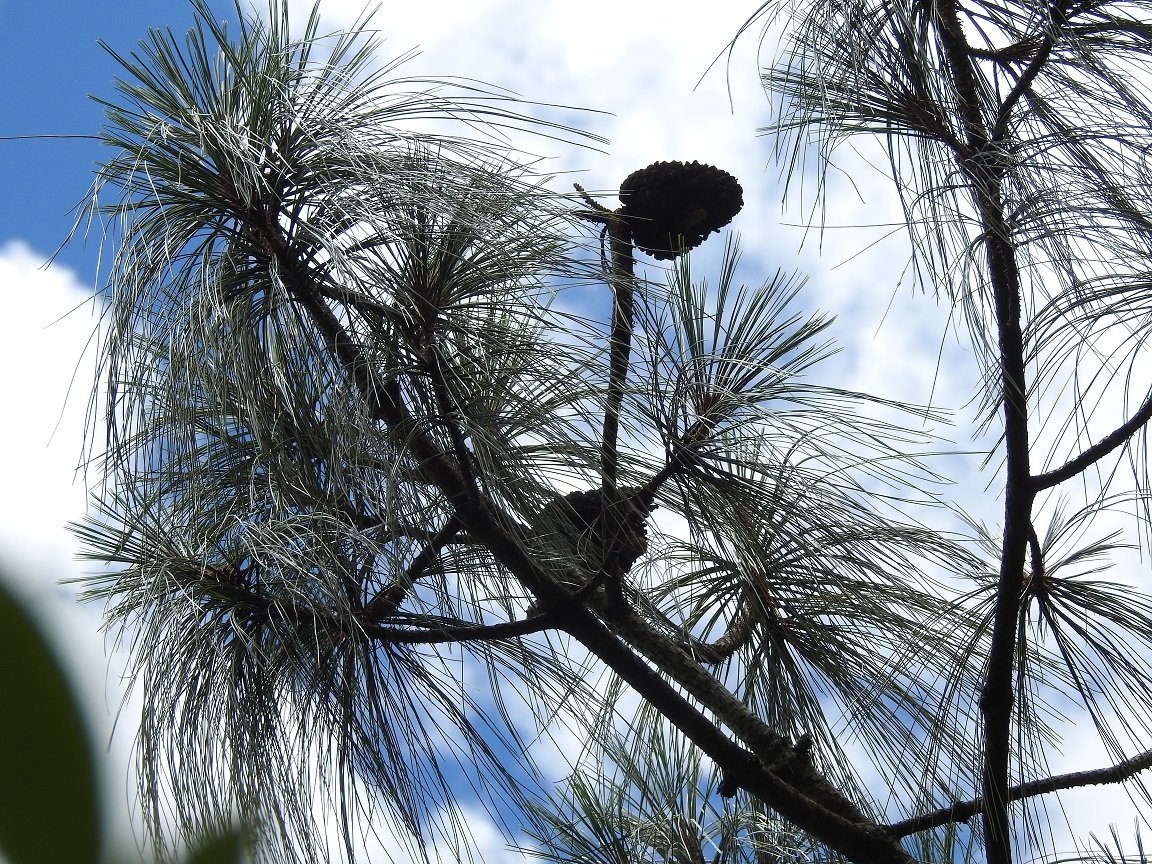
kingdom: Plantae
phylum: Tracheophyta
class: Pinopsida
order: Pinales
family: Pinaceae
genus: Pinus
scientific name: Pinus pseudostrobus
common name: False weymouth pine
